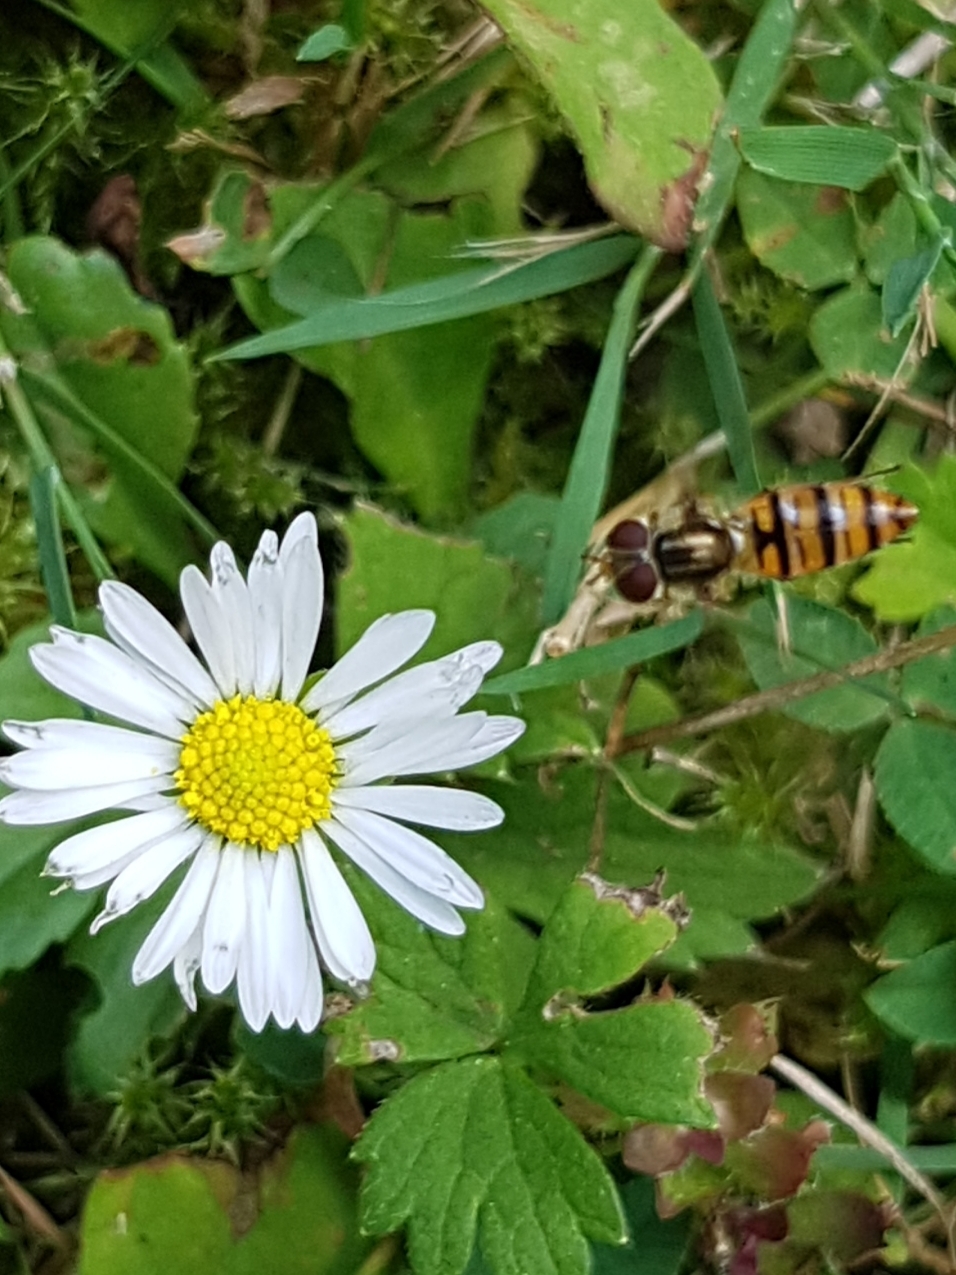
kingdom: Animalia
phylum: Arthropoda
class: Insecta
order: Diptera
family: Syrphidae
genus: Episyrphus
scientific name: Episyrphus balteatus
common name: Marmalade hoverfly
